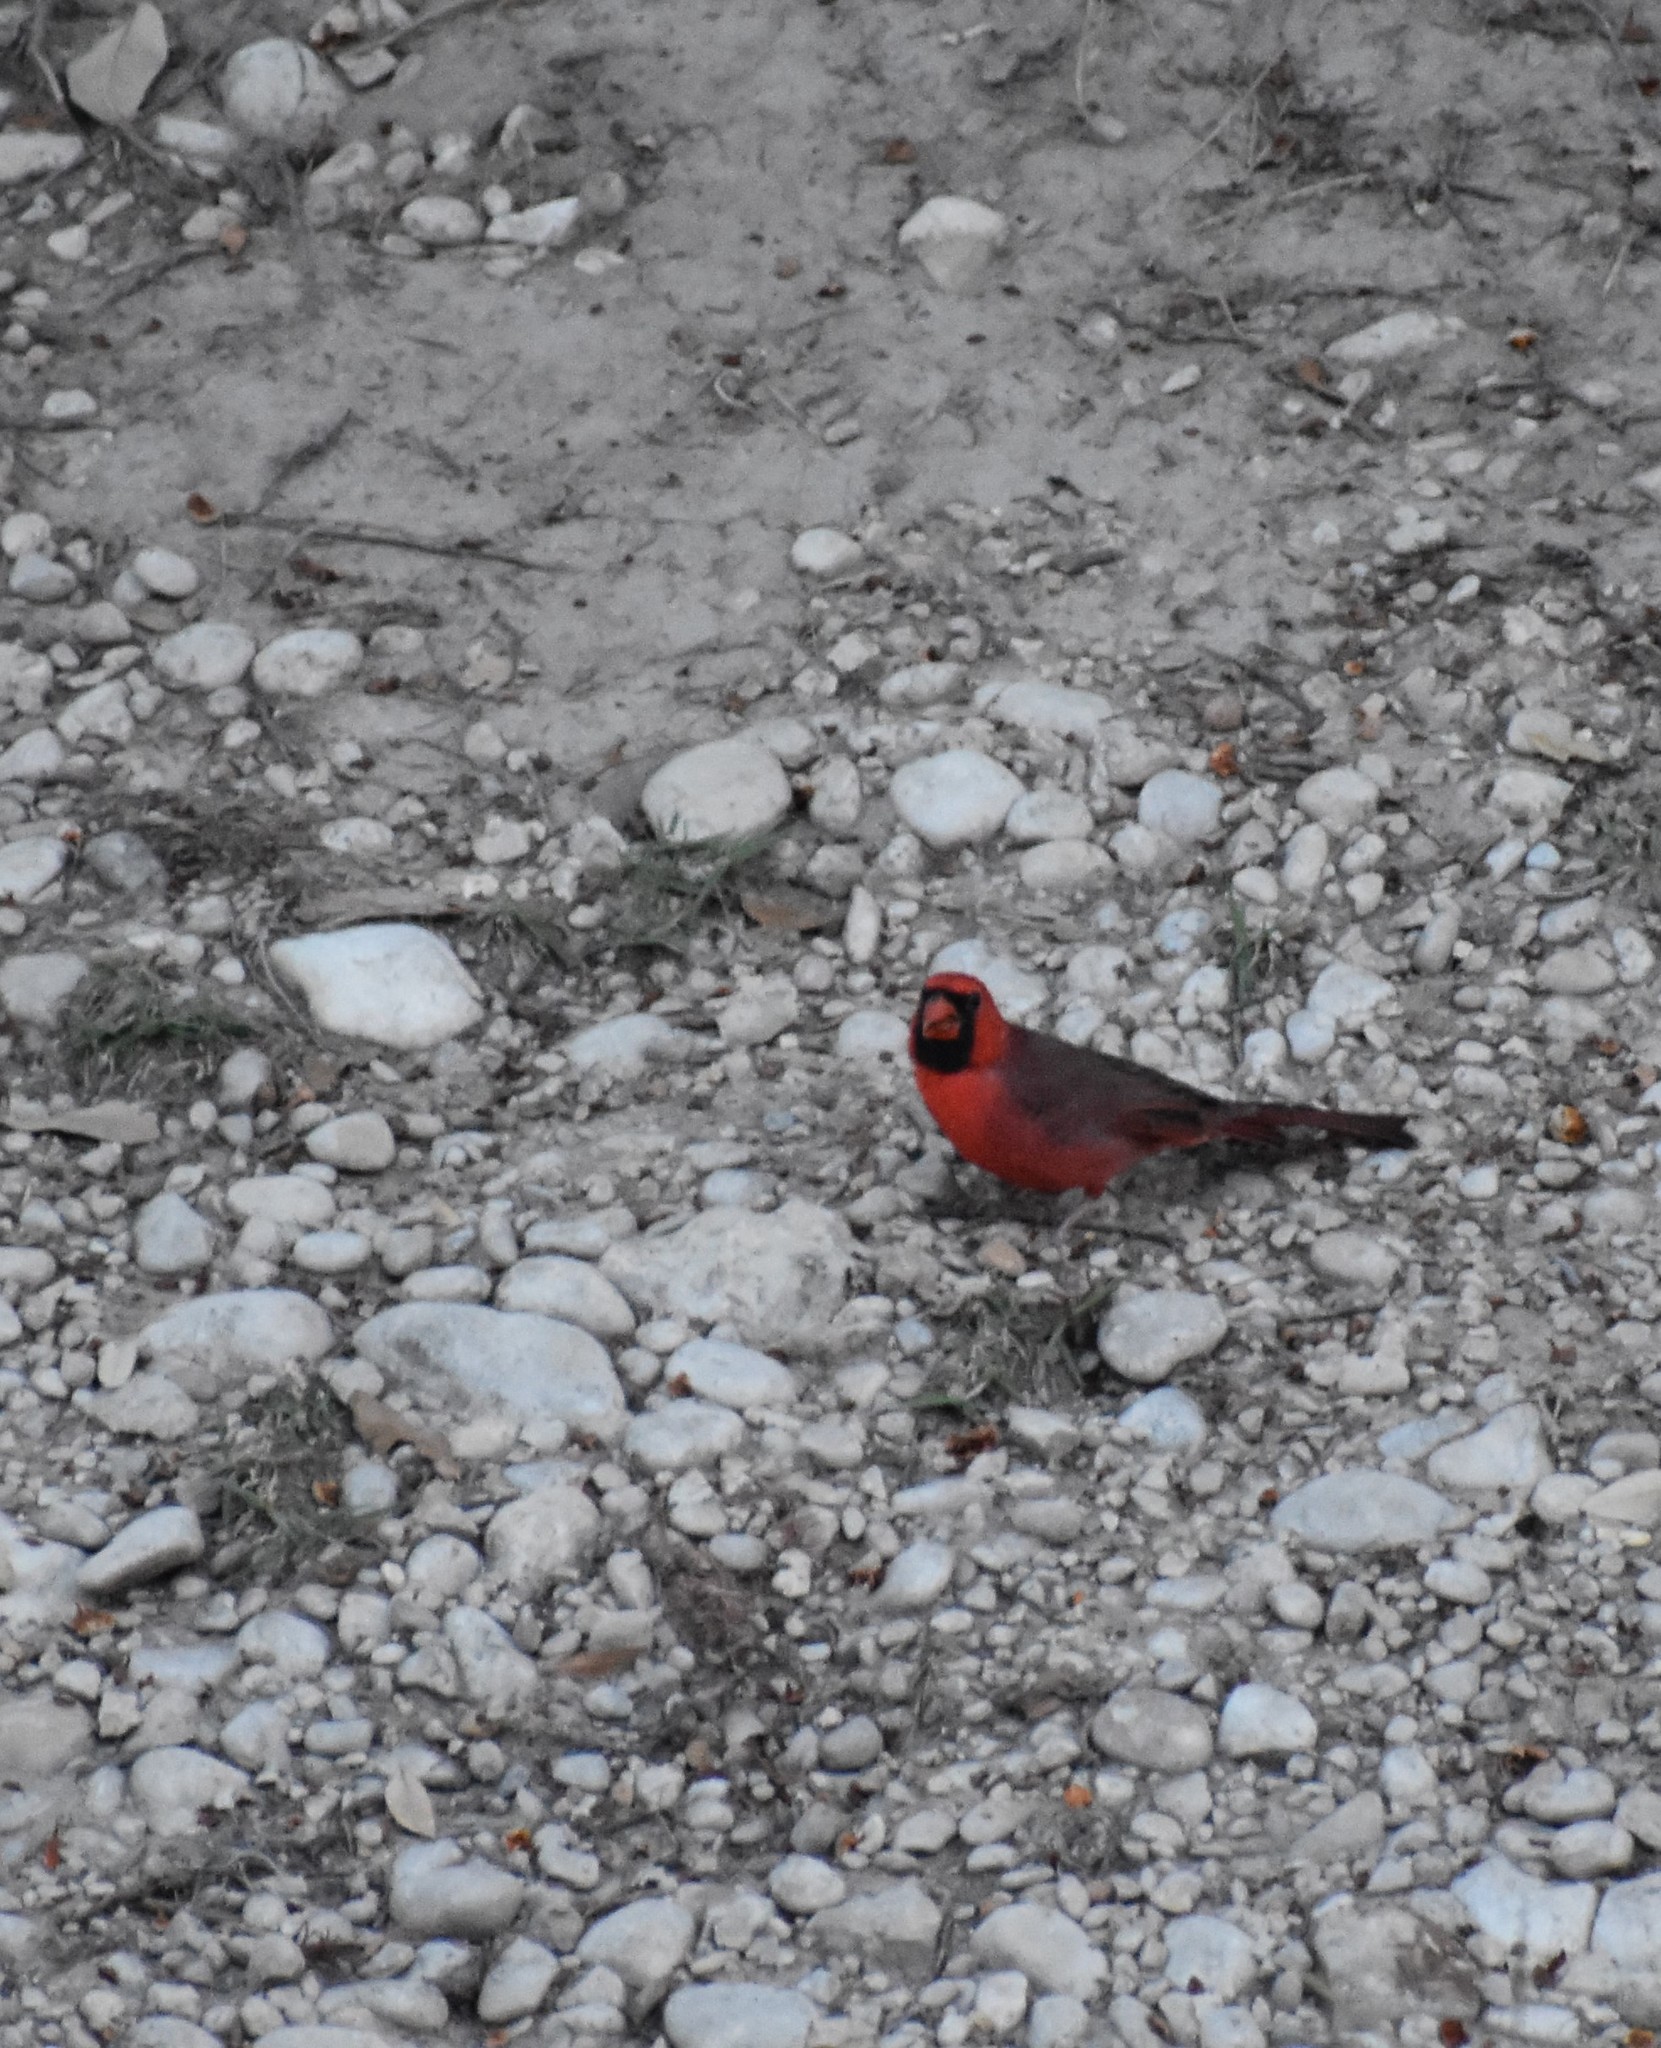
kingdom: Animalia
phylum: Chordata
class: Aves
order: Passeriformes
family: Cardinalidae
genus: Cardinalis
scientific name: Cardinalis cardinalis
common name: Northern cardinal
